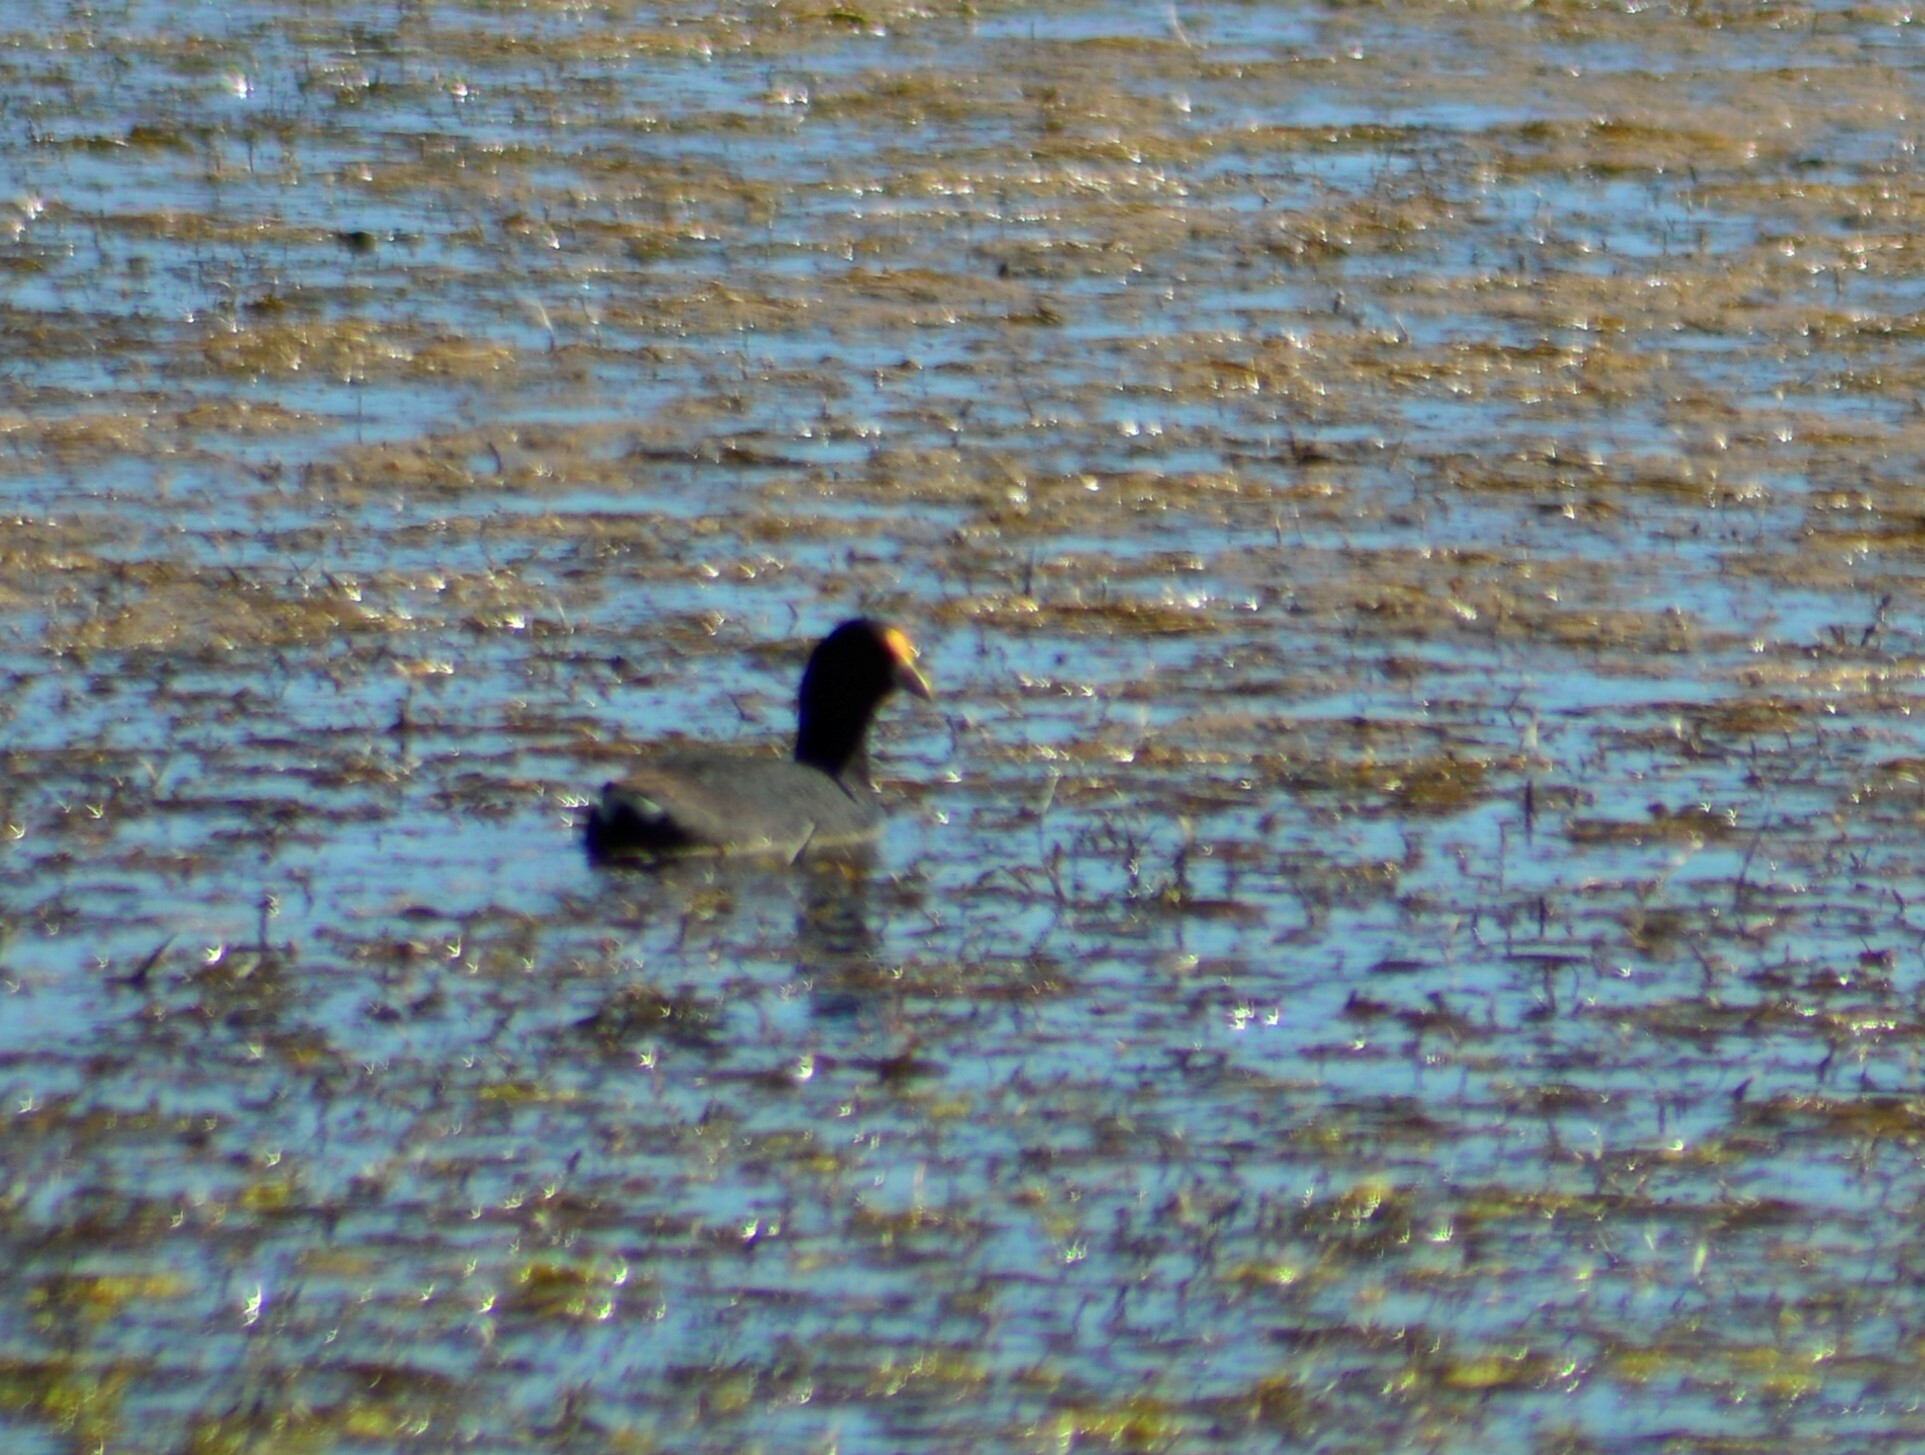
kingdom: Animalia
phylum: Chordata
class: Aves
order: Gruiformes
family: Rallidae
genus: Fulica
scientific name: Fulica leucoptera
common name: White-winged coot
